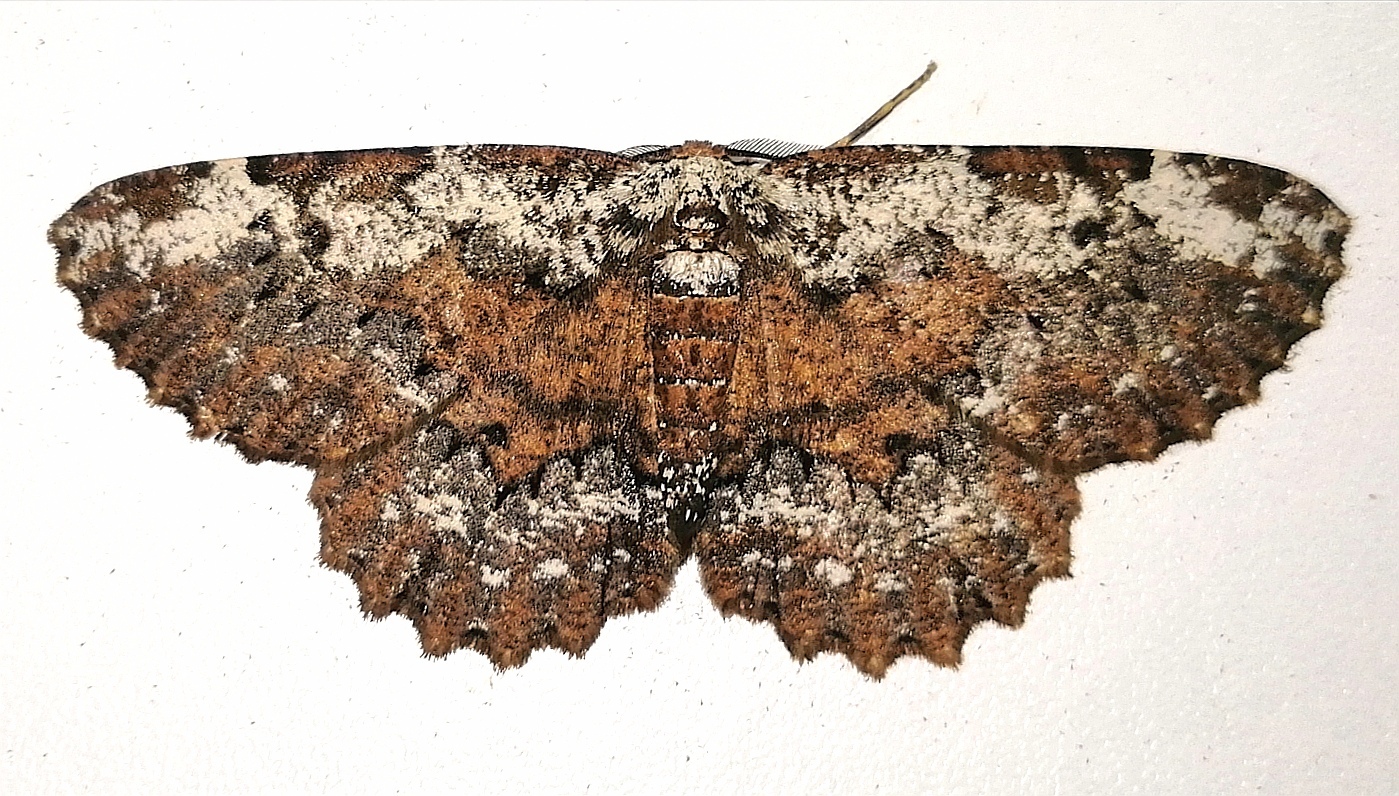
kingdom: Animalia
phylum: Arthropoda
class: Insecta
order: Lepidoptera
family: Geometridae
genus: Betulodes
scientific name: Betulodes crebraria
